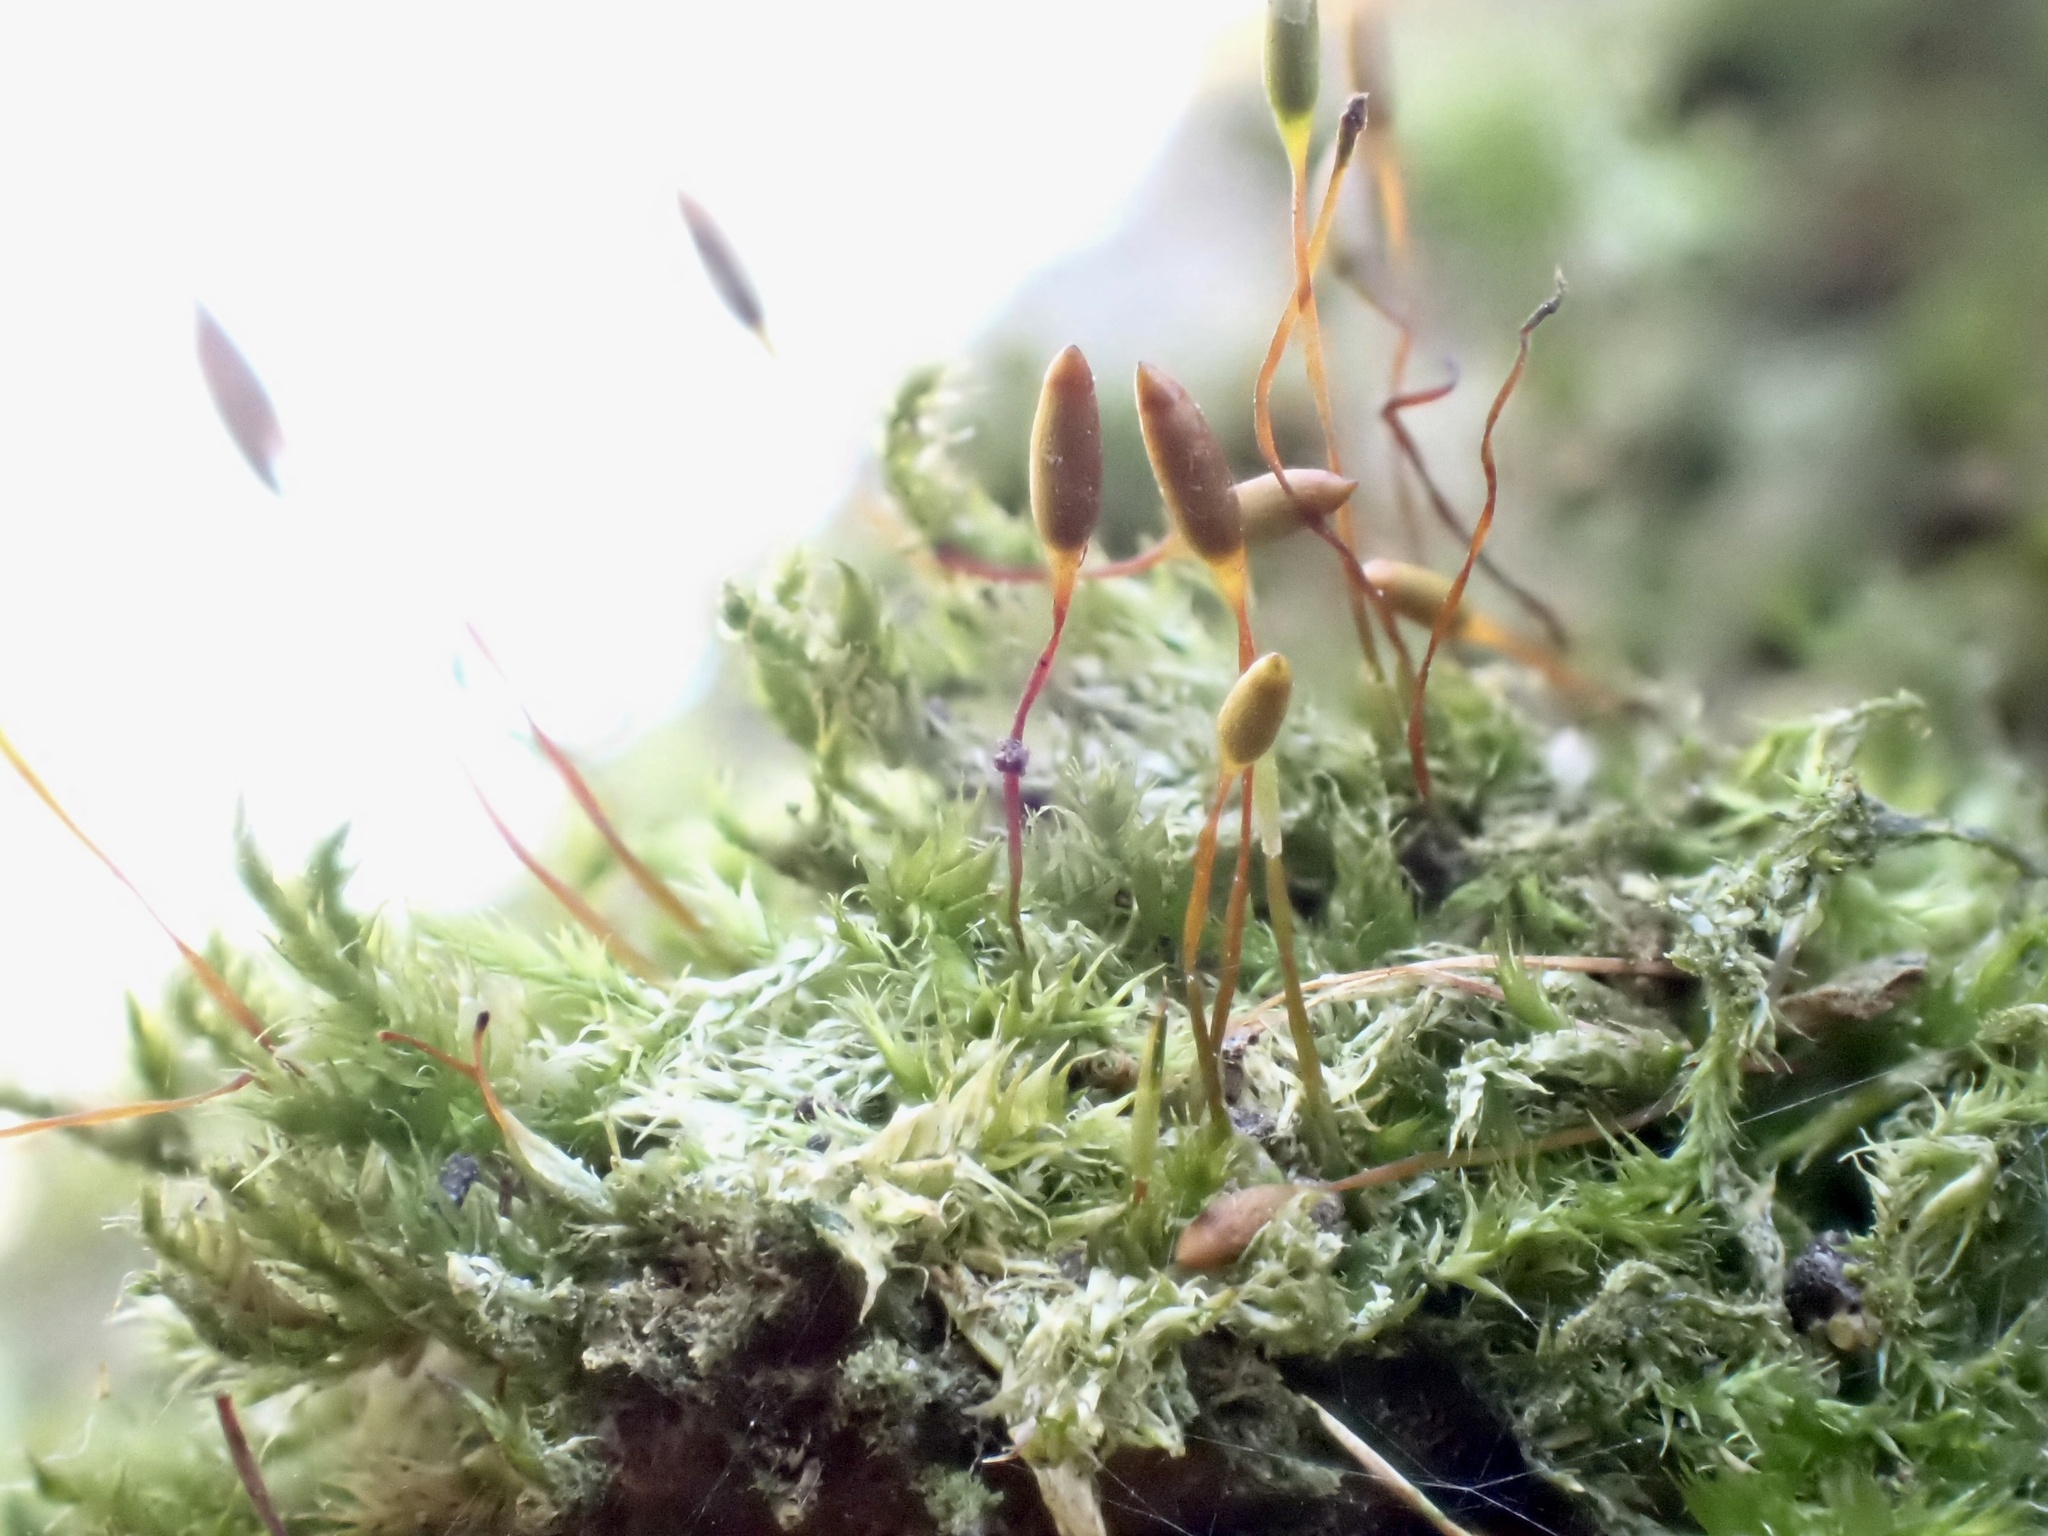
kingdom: Plantae
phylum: Bryophyta
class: Bryopsida
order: Hypnales
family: Pylaisiaceae
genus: Pylaisia
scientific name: Pylaisia polyantha
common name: Many-flowered leskea
